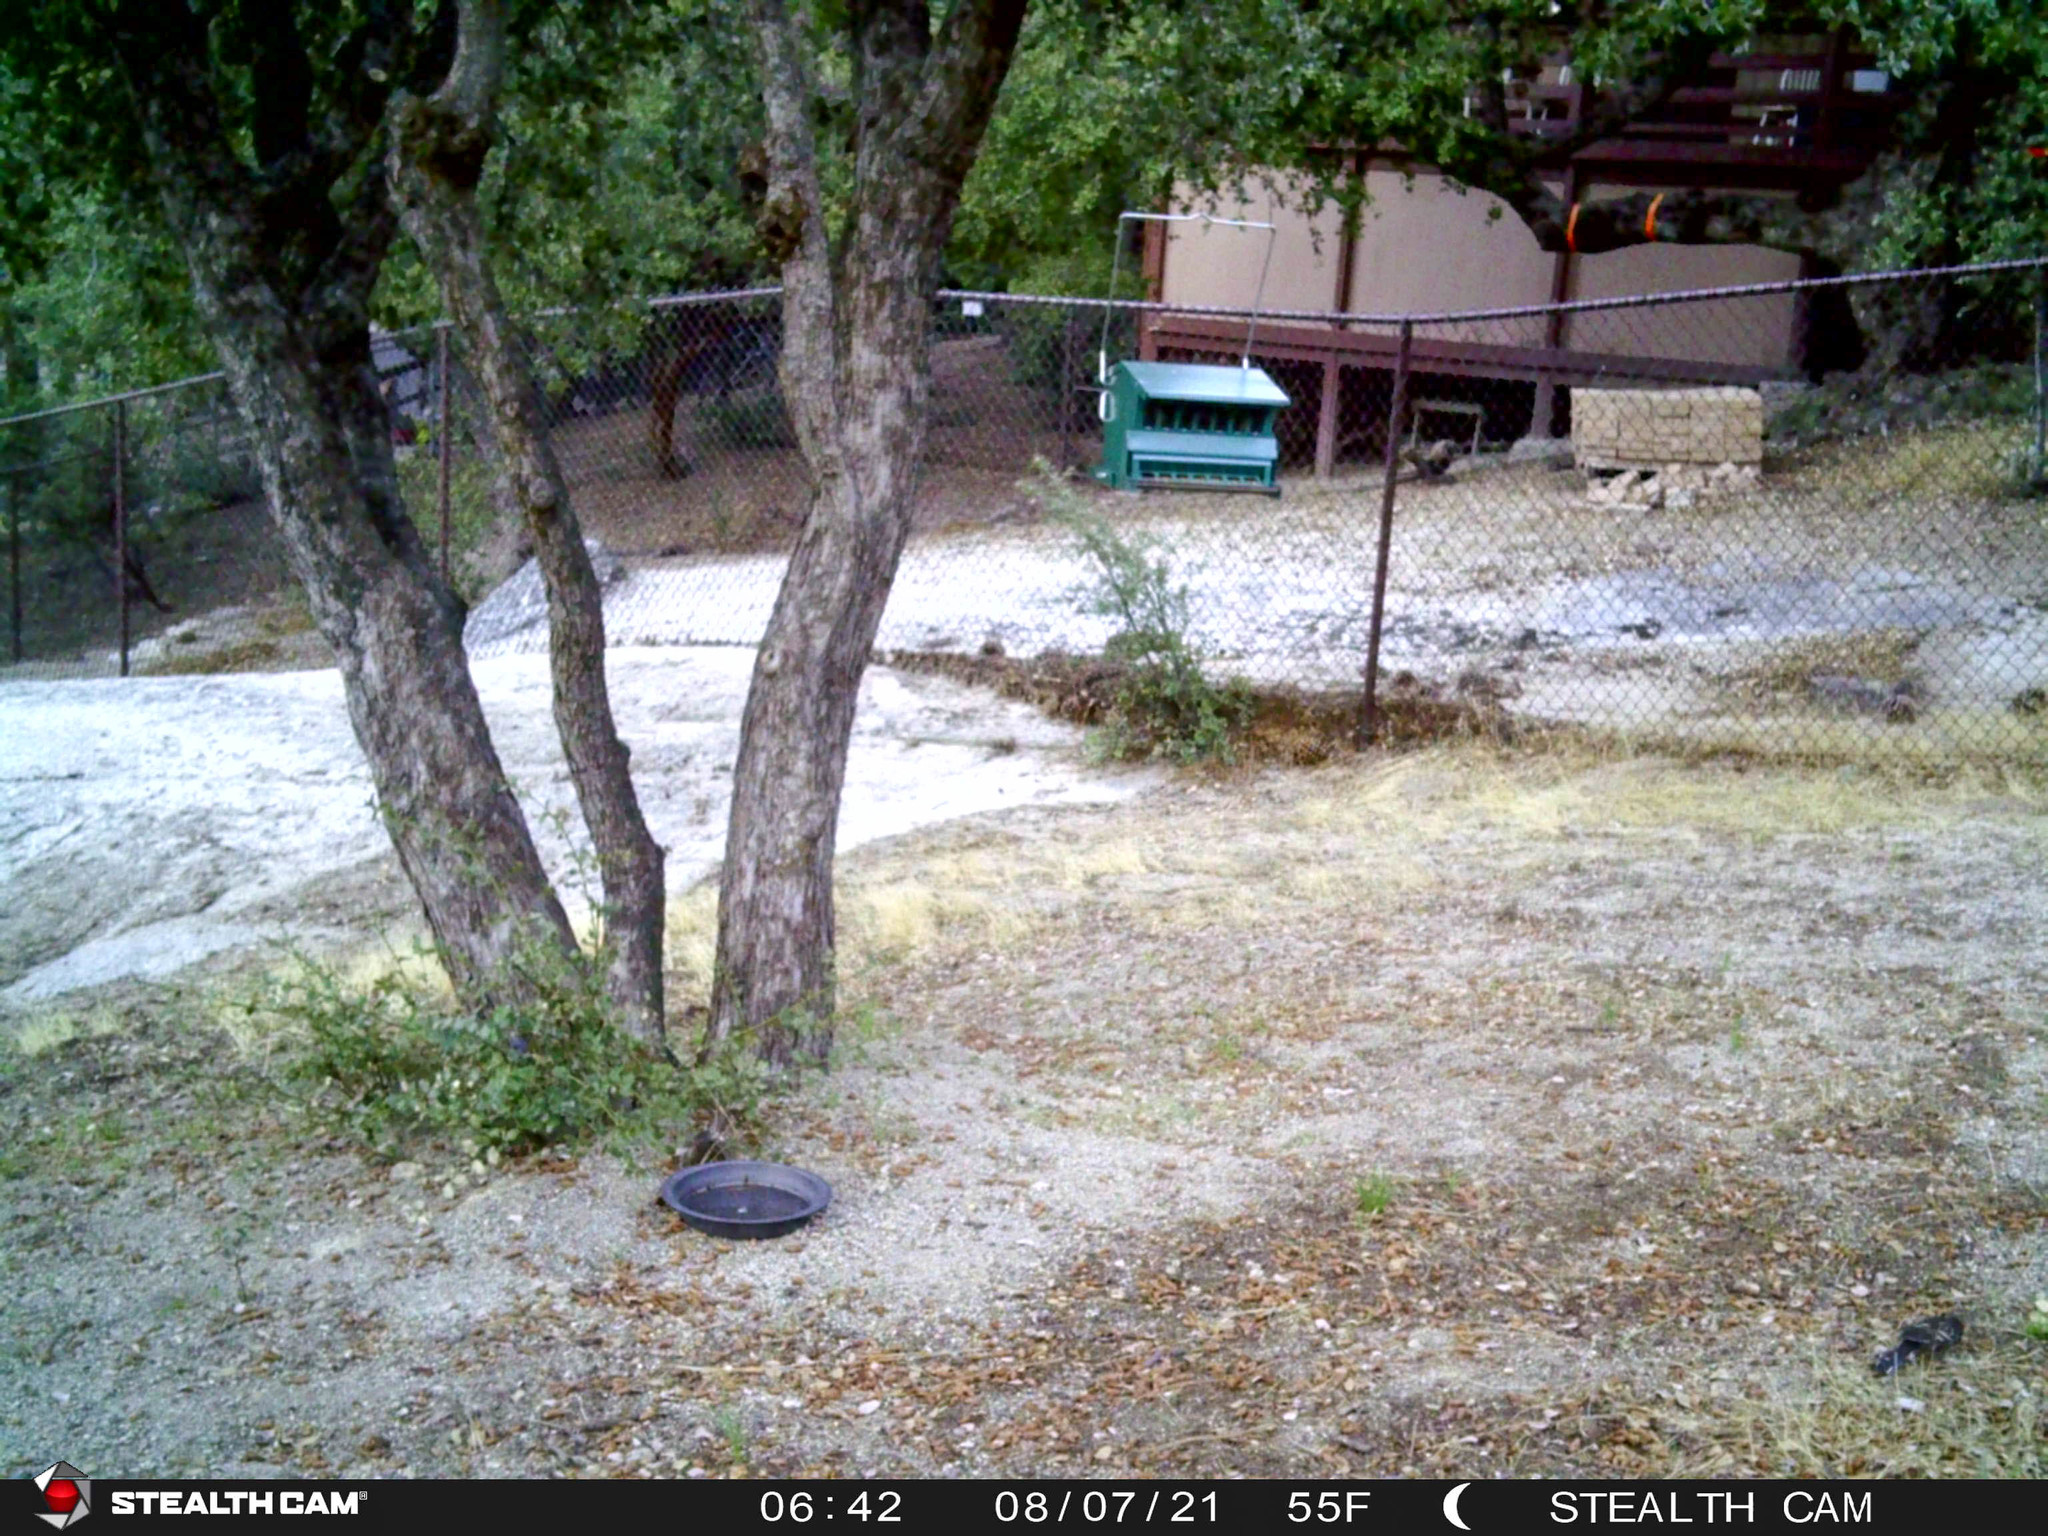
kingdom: Animalia
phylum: Chordata
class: Aves
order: Passeriformes
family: Passerellidae
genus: Pipilo
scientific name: Pipilo maculatus
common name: Spotted towhee
